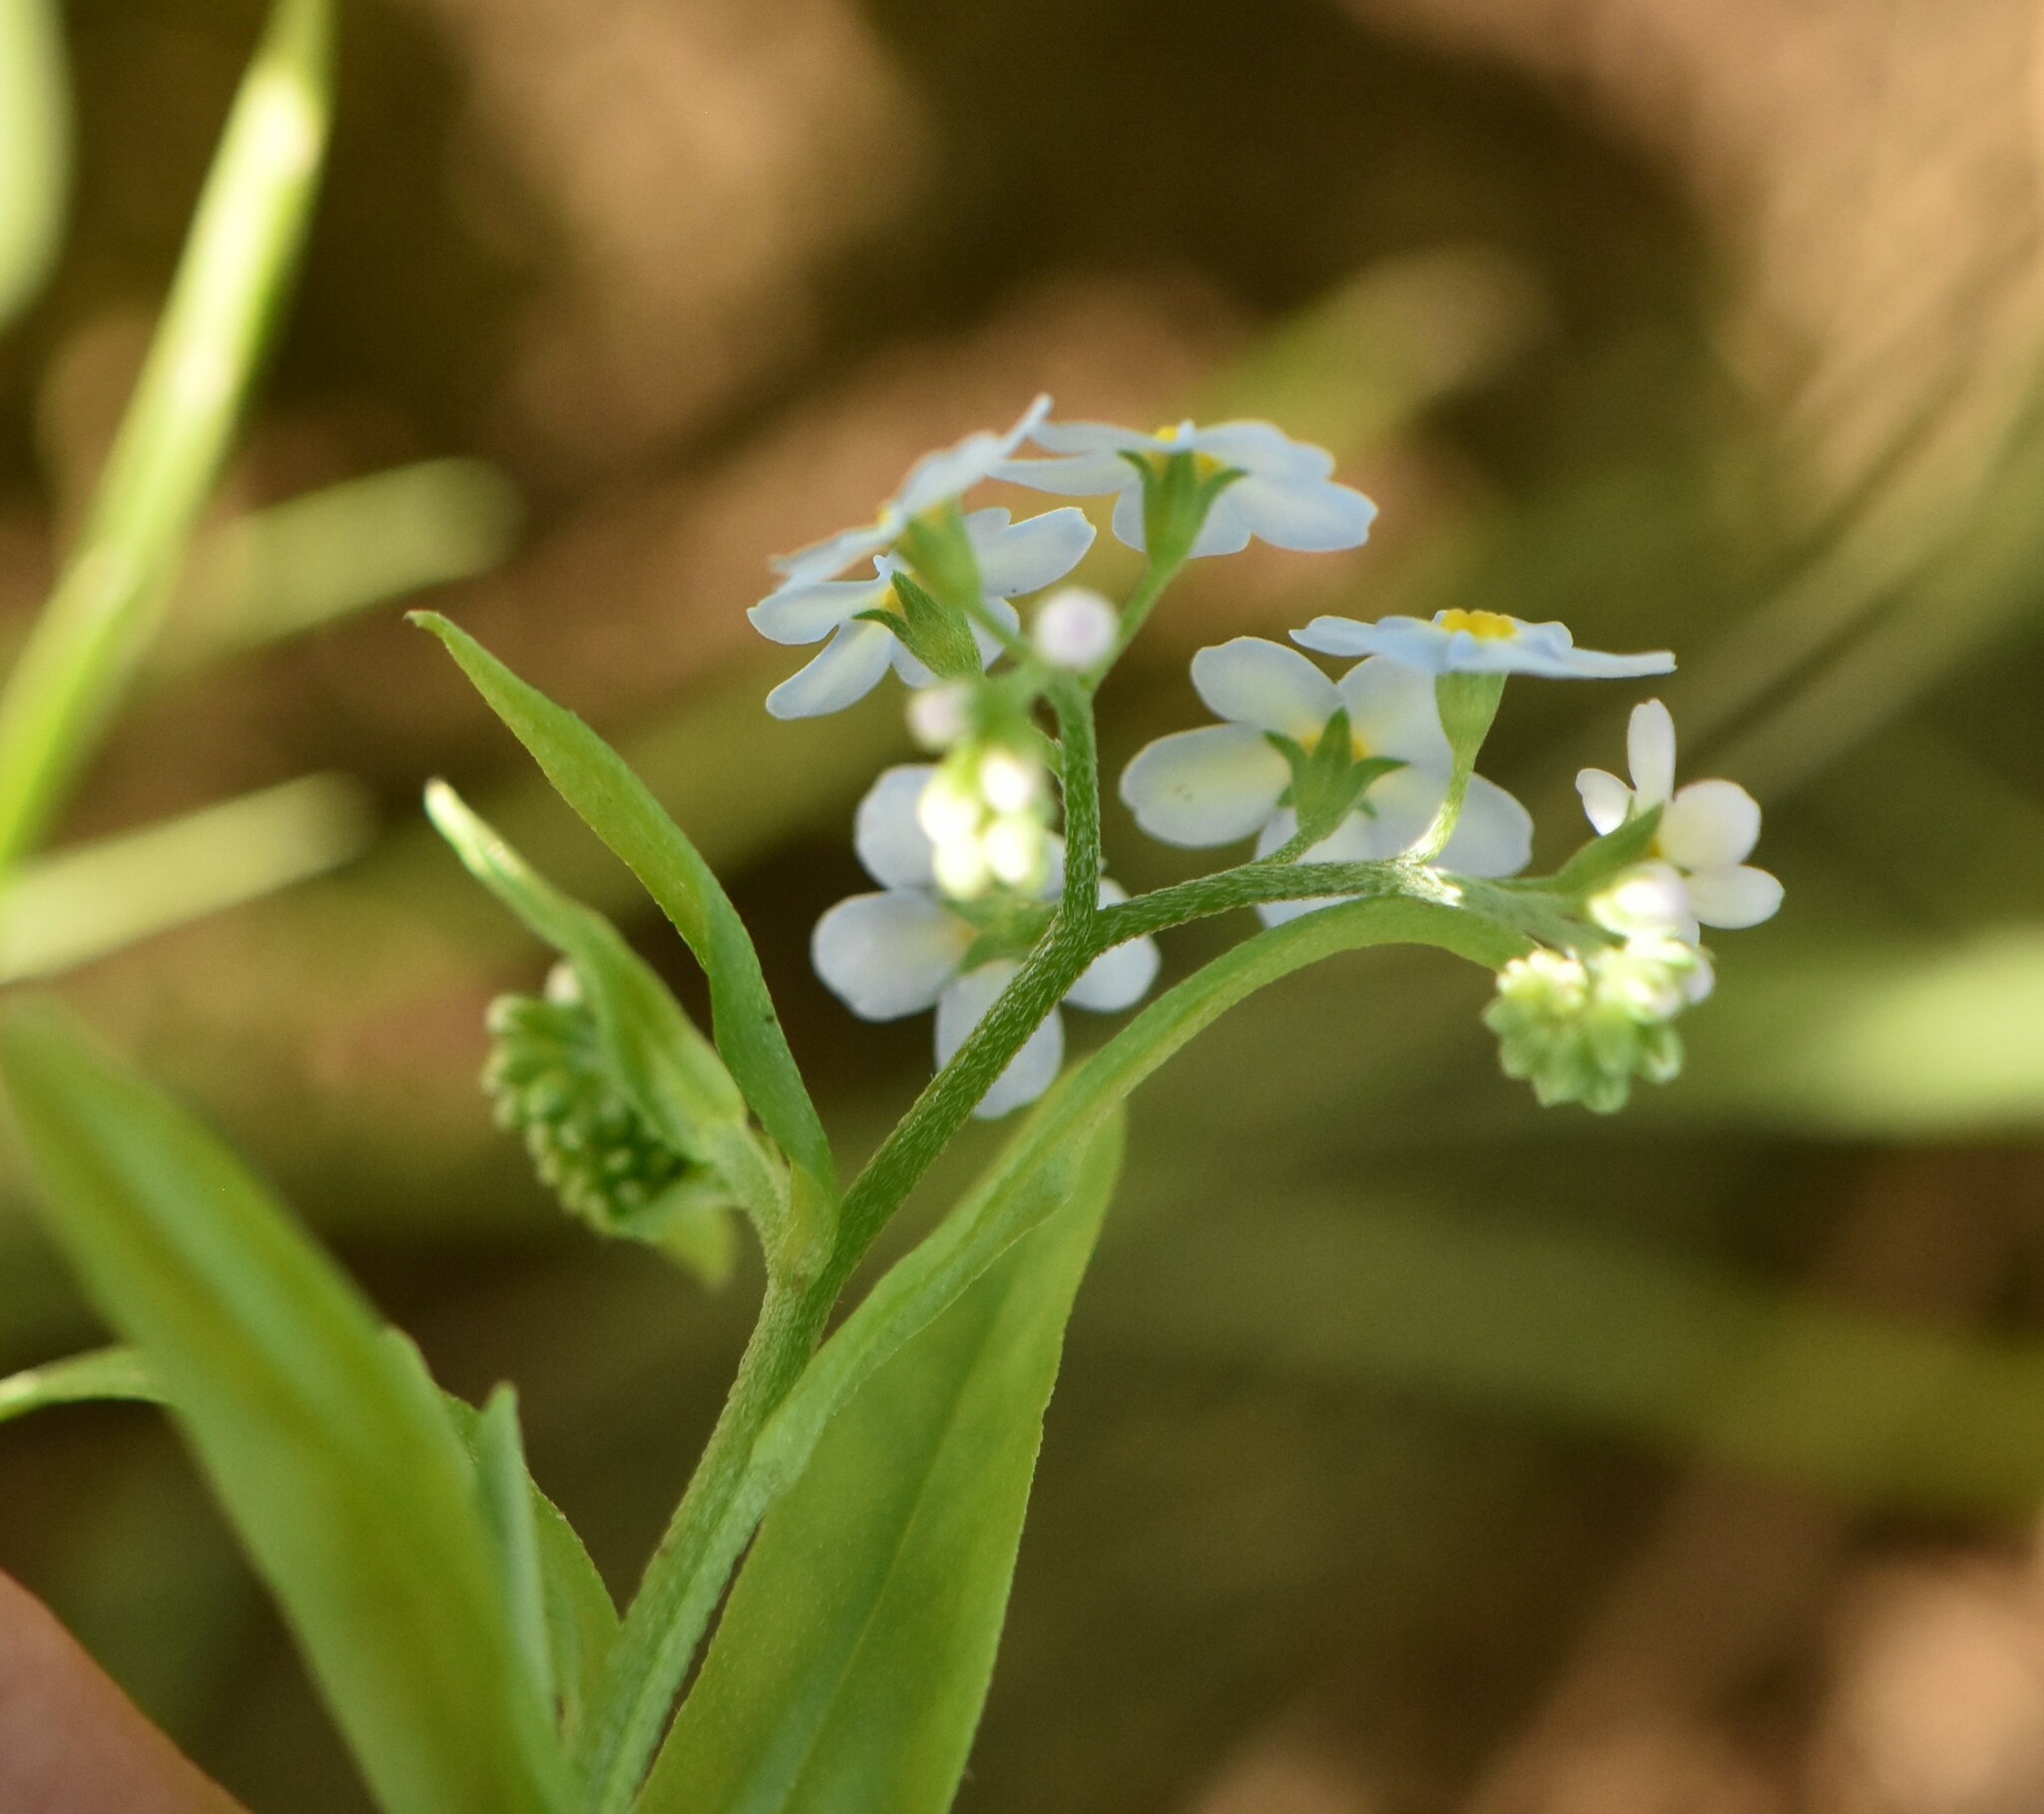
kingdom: Plantae
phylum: Tracheophyta
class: Magnoliopsida
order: Boraginales
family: Boraginaceae
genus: Myosotis
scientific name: Myosotis scorpioides
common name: Water forget-me-not
